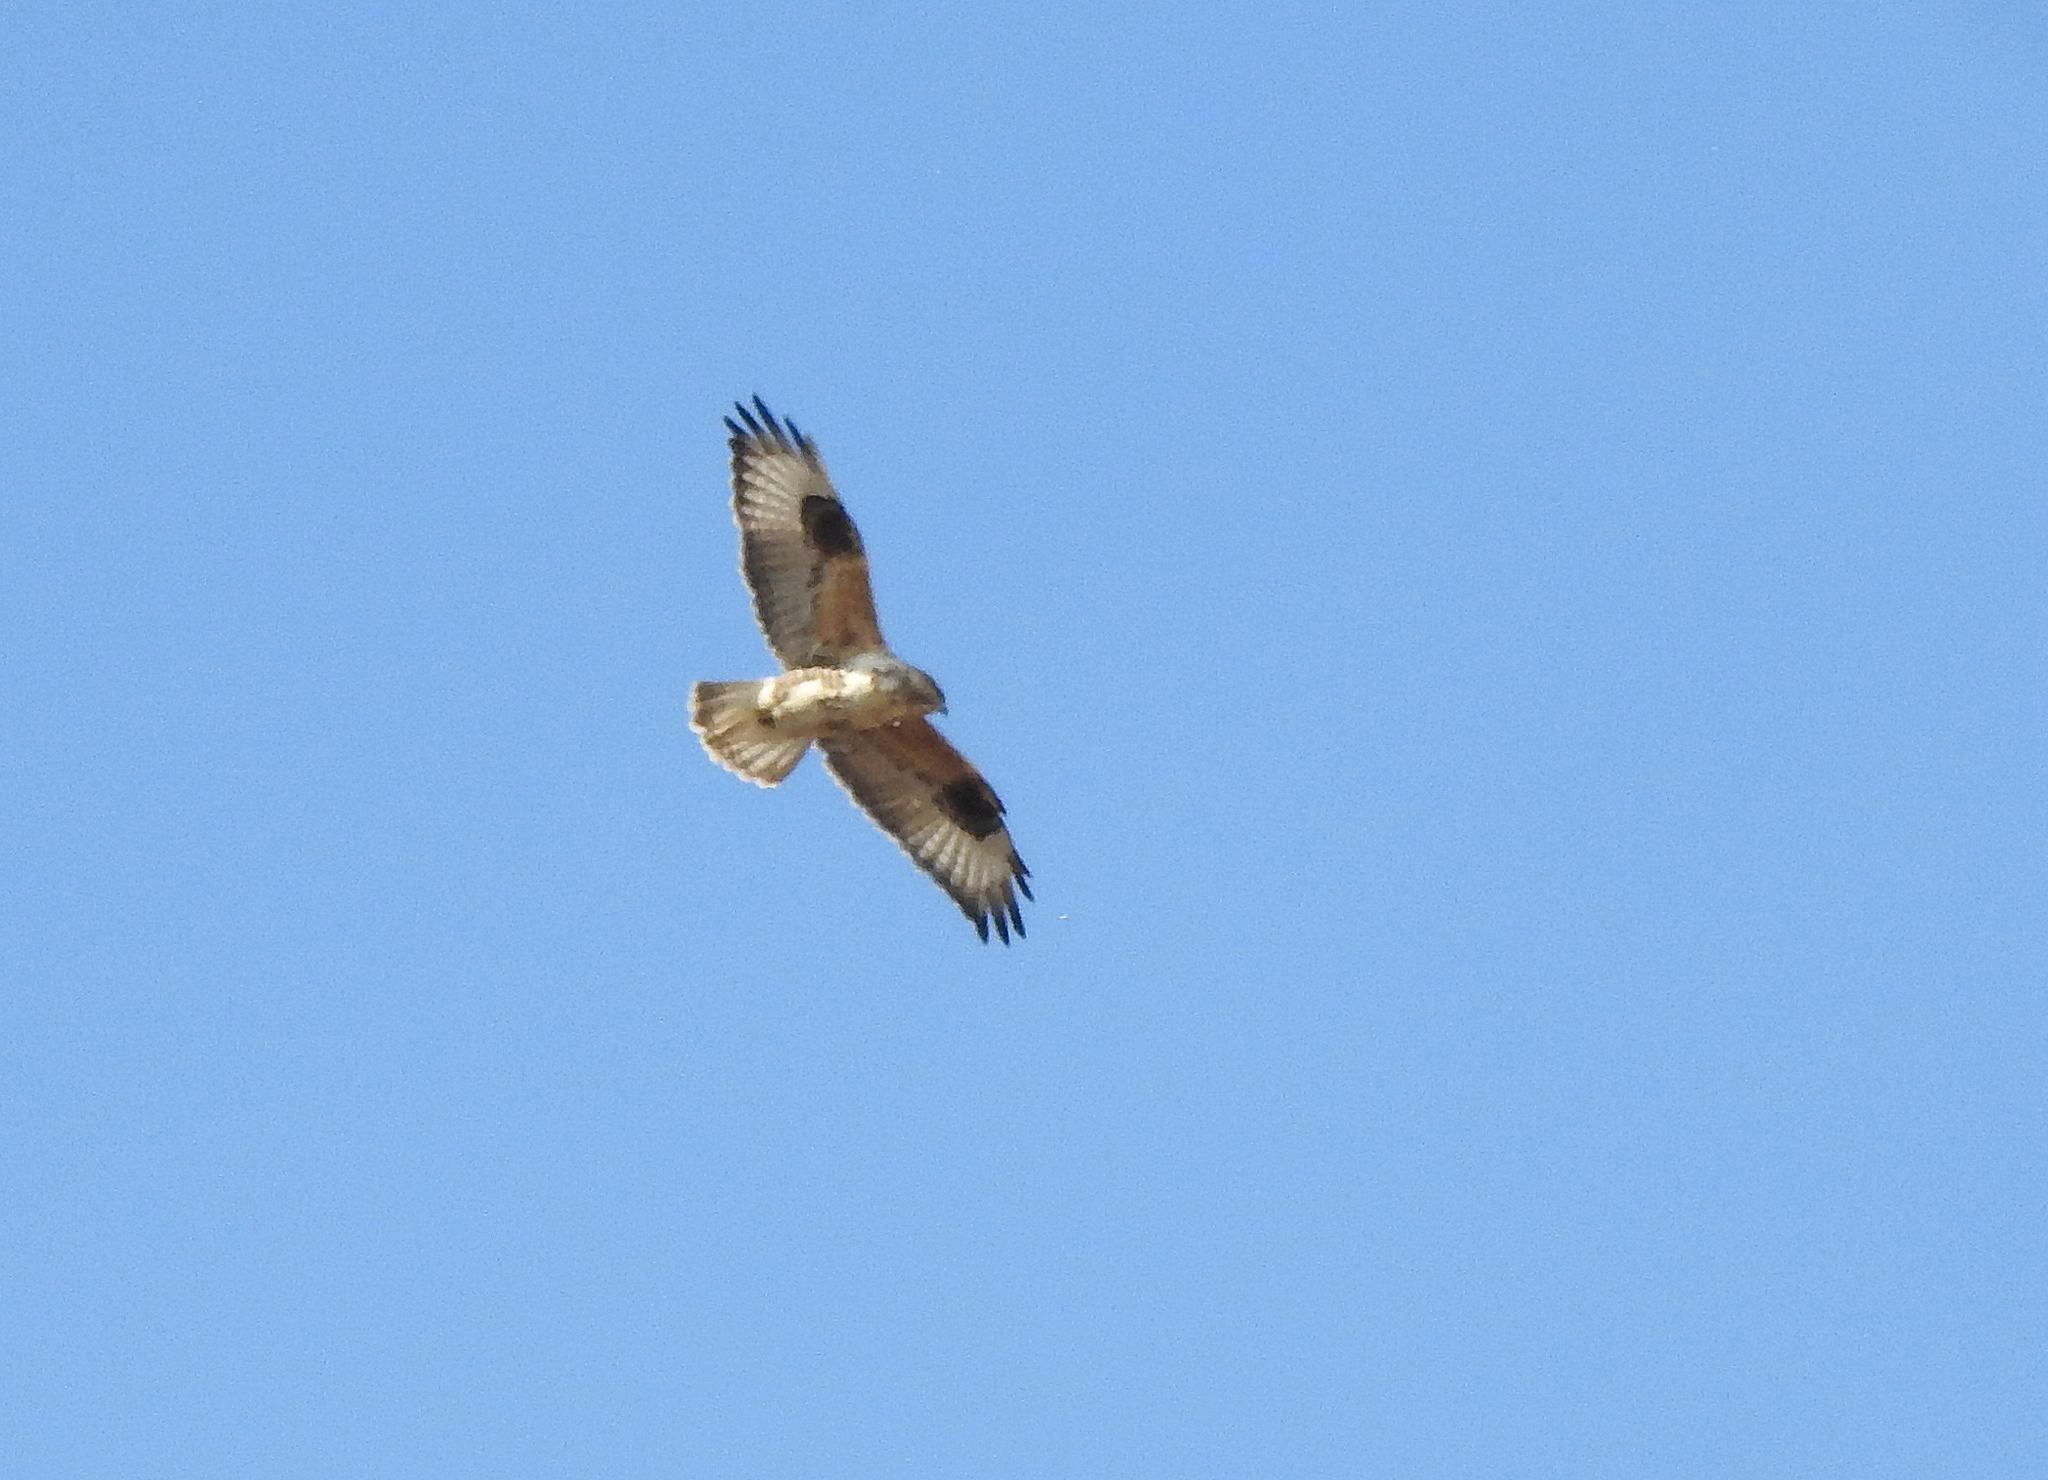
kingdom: Animalia
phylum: Chordata
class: Aves
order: Accipitriformes
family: Accipitridae
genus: Buteo
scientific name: Buteo hemilasius
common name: Upland buzzard
